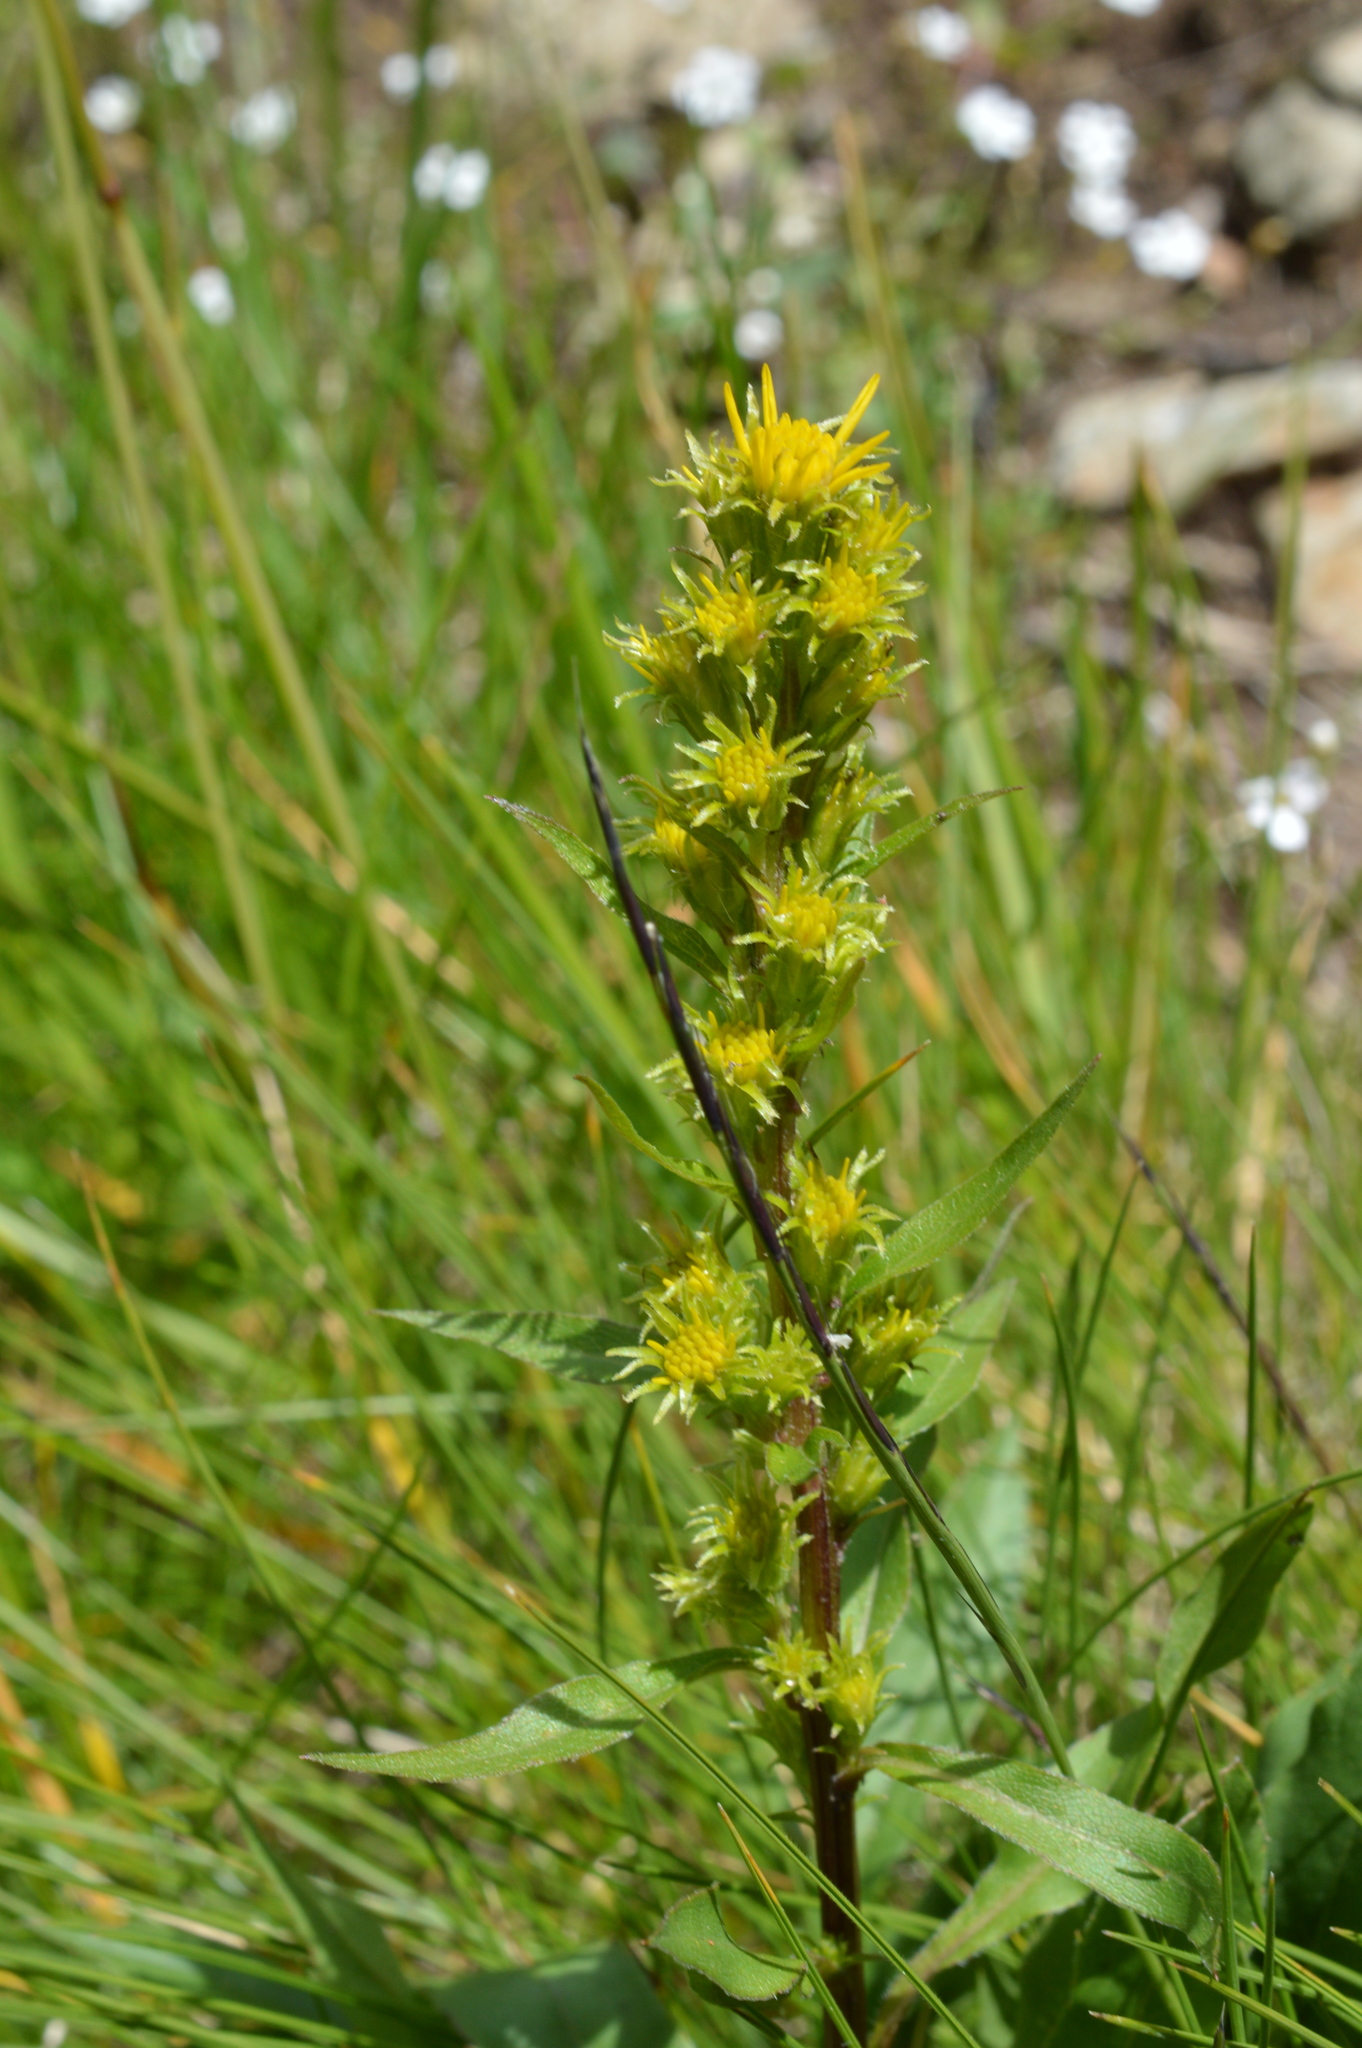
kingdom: Plantae
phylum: Tracheophyta
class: Magnoliopsida
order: Asterales
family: Asteraceae
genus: Solidago
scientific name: Solidago virgaurea
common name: Goldenrod
